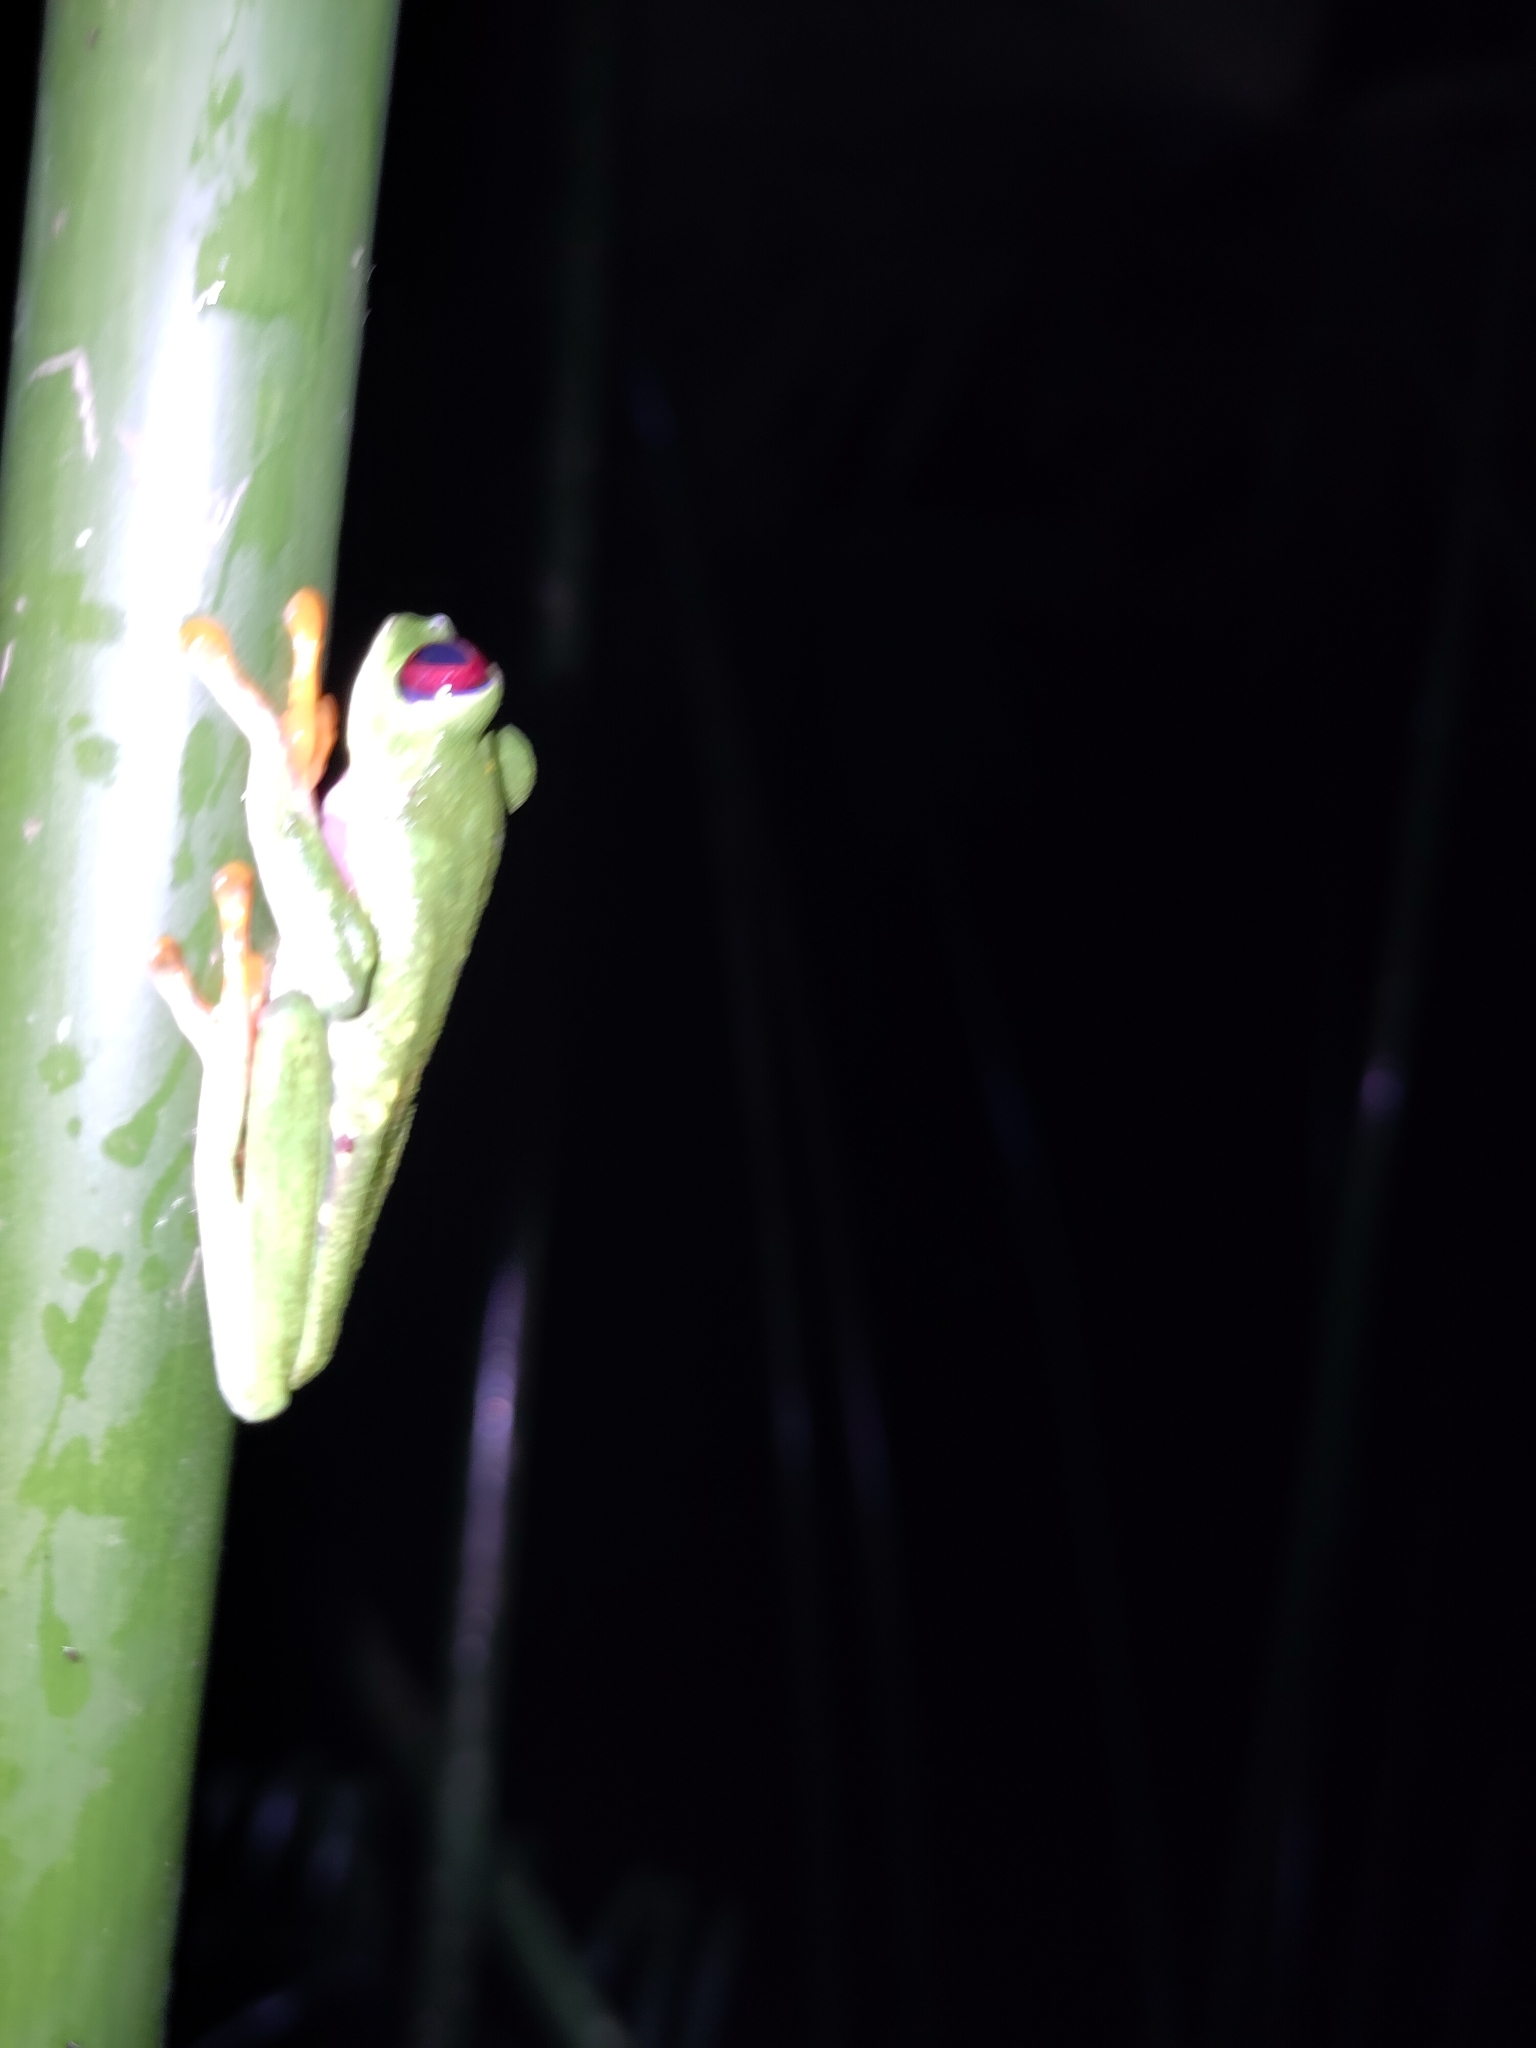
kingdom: Animalia
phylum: Chordata
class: Amphibia
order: Anura
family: Phyllomedusidae
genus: Agalychnis
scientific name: Agalychnis callidryas
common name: Red-eyed treefrog
